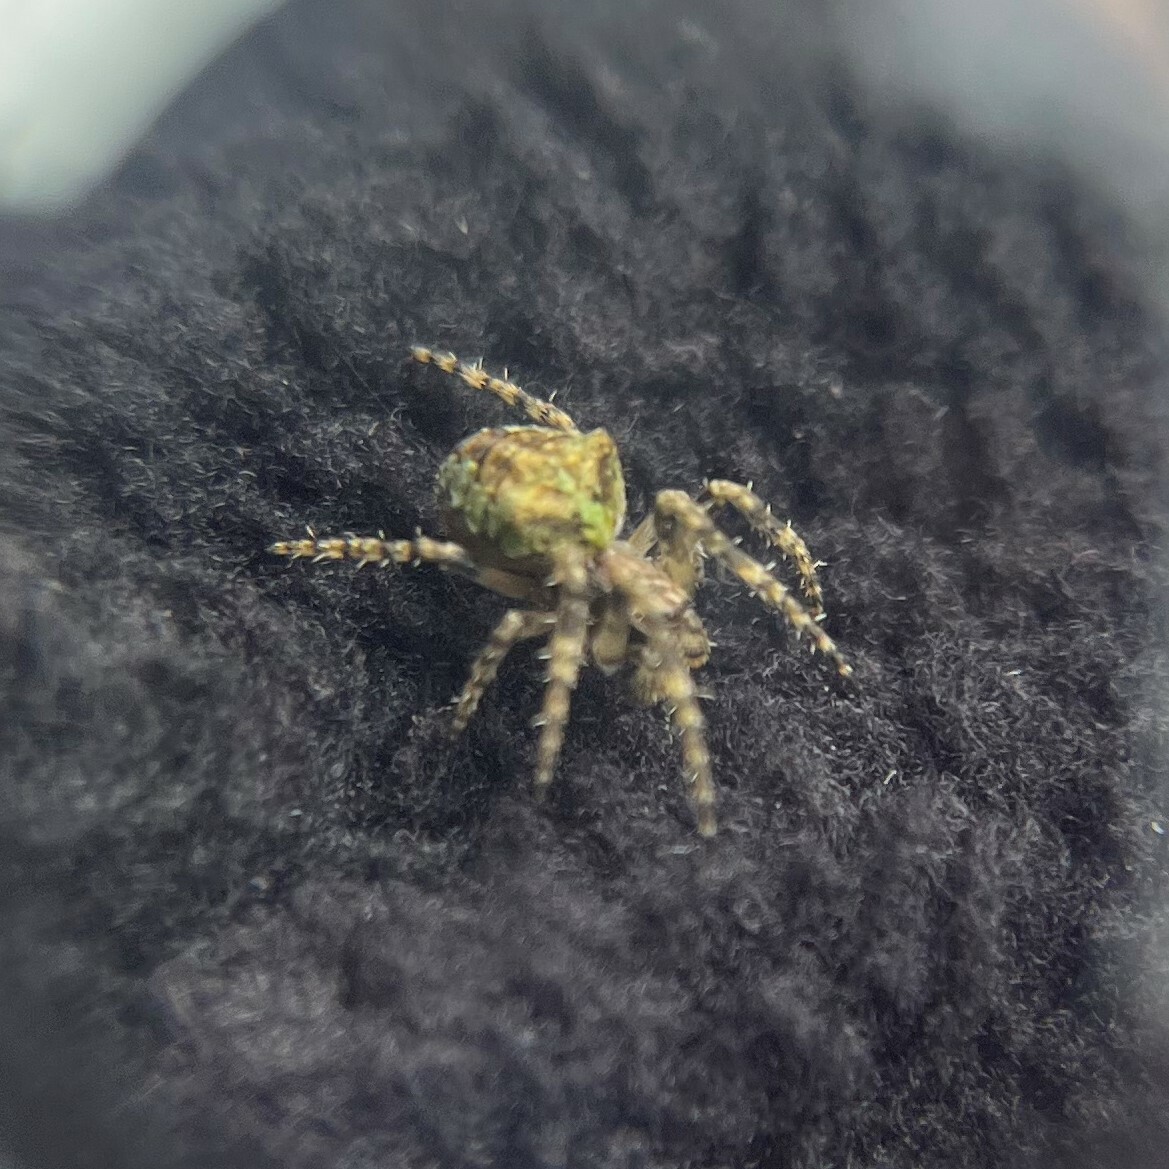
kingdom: Animalia
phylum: Arthropoda
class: Arachnida
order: Araneae
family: Araneidae
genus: Gibbaranea
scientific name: Gibbaranea gibbosa
